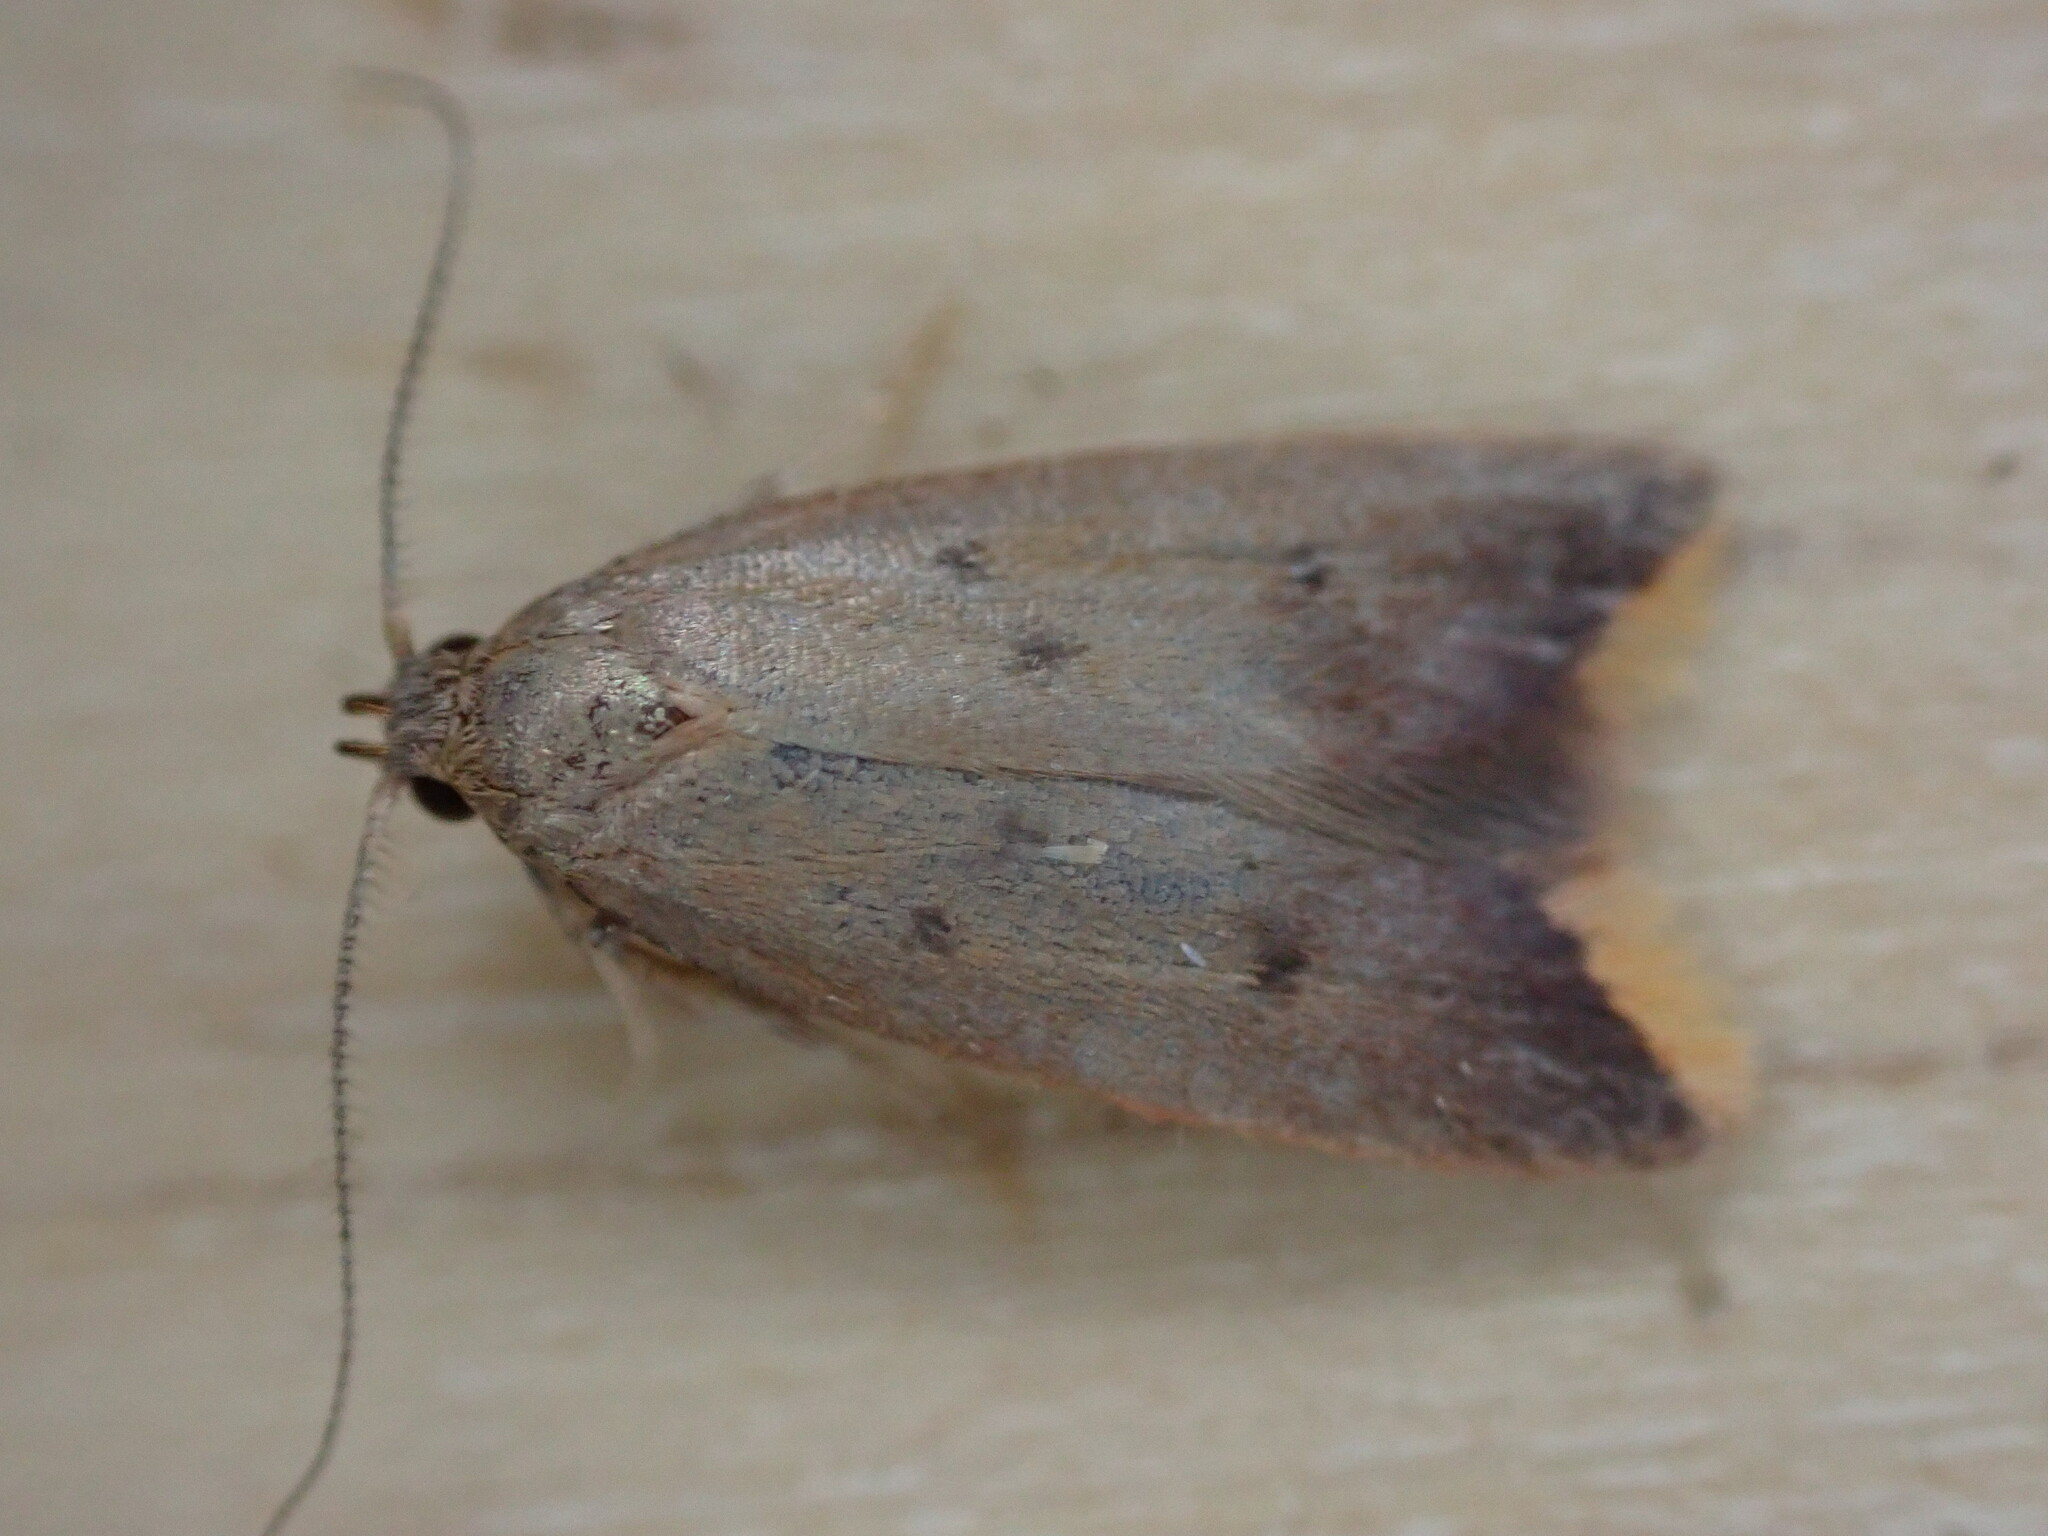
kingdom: Animalia
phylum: Arthropoda
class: Insecta
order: Lepidoptera
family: Oecophoridae
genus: Tachystola
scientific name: Tachystola acroxantha
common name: Ruddy streak
